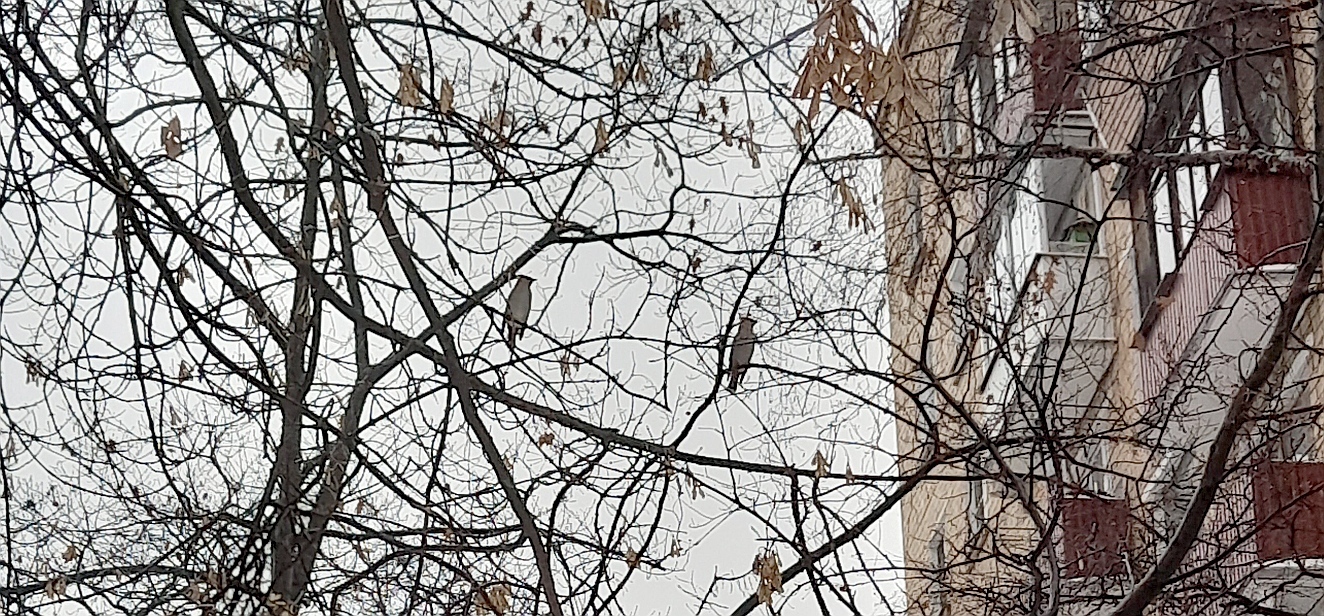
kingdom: Animalia
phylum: Chordata
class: Aves
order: Passeriformes
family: Bombycillidae
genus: Bombycilla
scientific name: Bombycilla garrulus
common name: Bohemian waxwing
